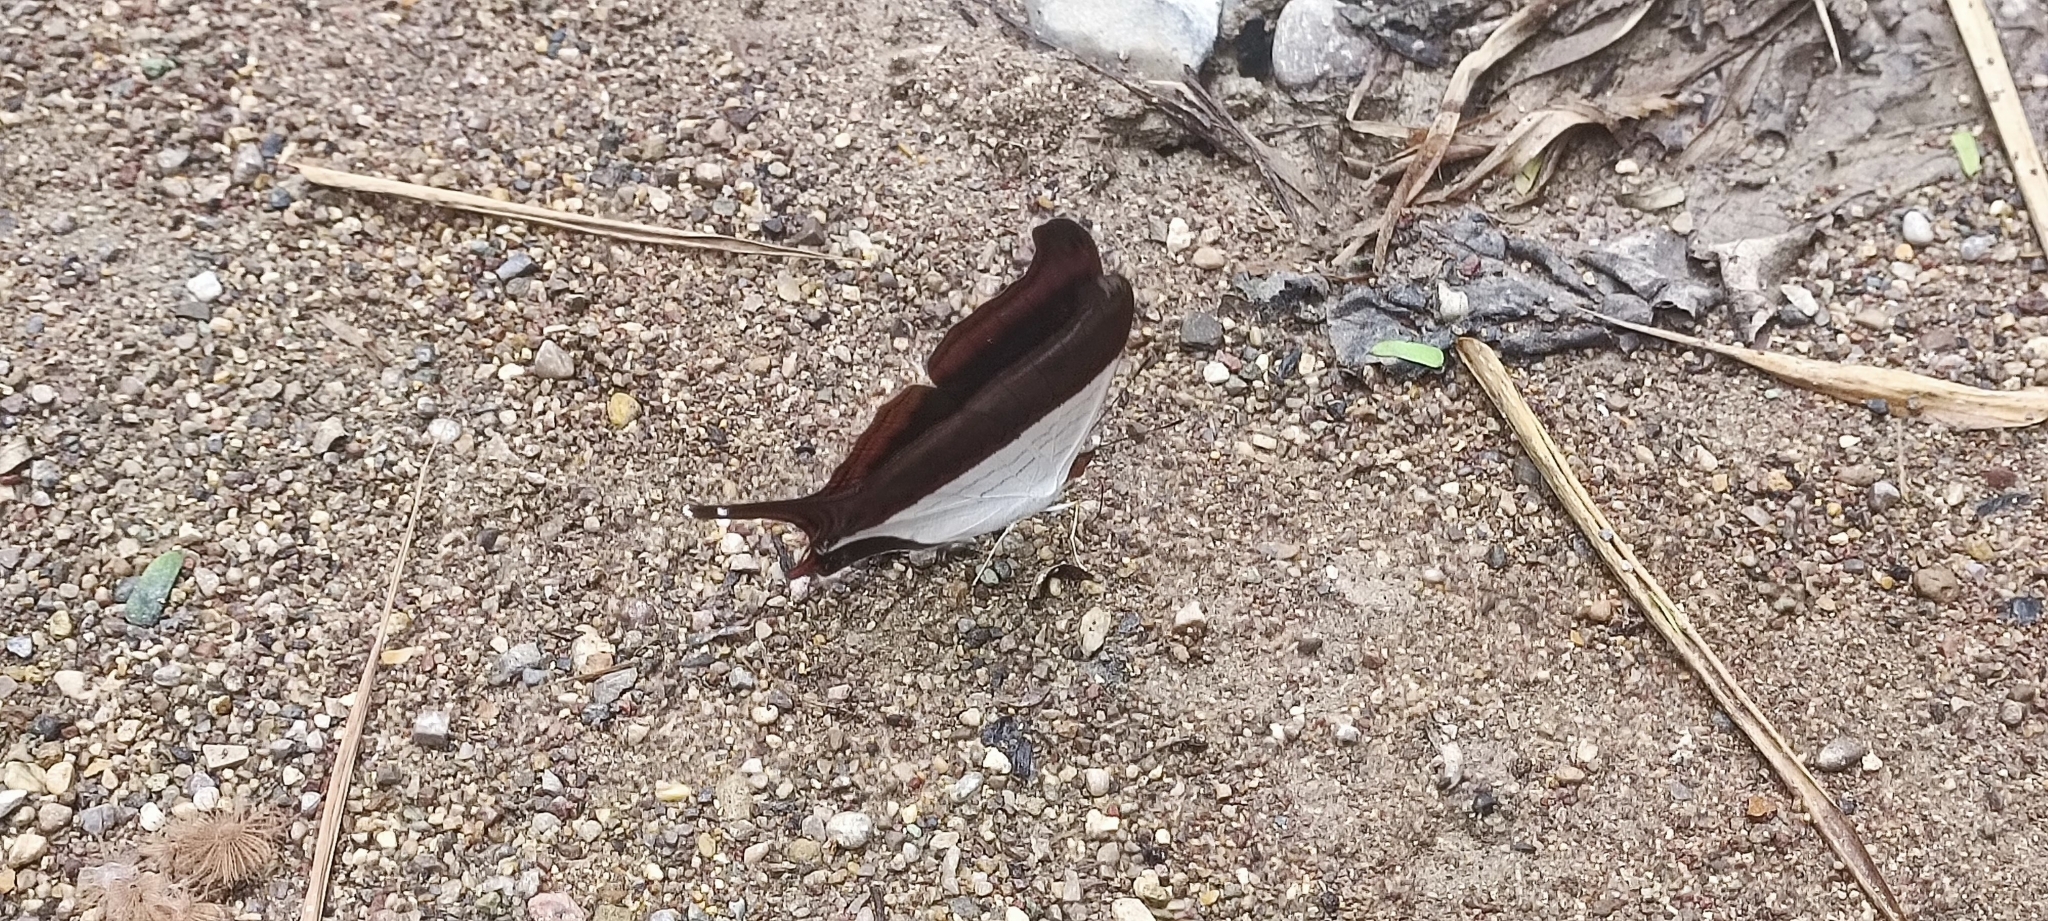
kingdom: Animalia
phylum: Arthropoda
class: Insecta
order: Lepidoptera
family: Nymphalidae
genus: Marpesia
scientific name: Marpesia zerynthia
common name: Waiter daggerwing
